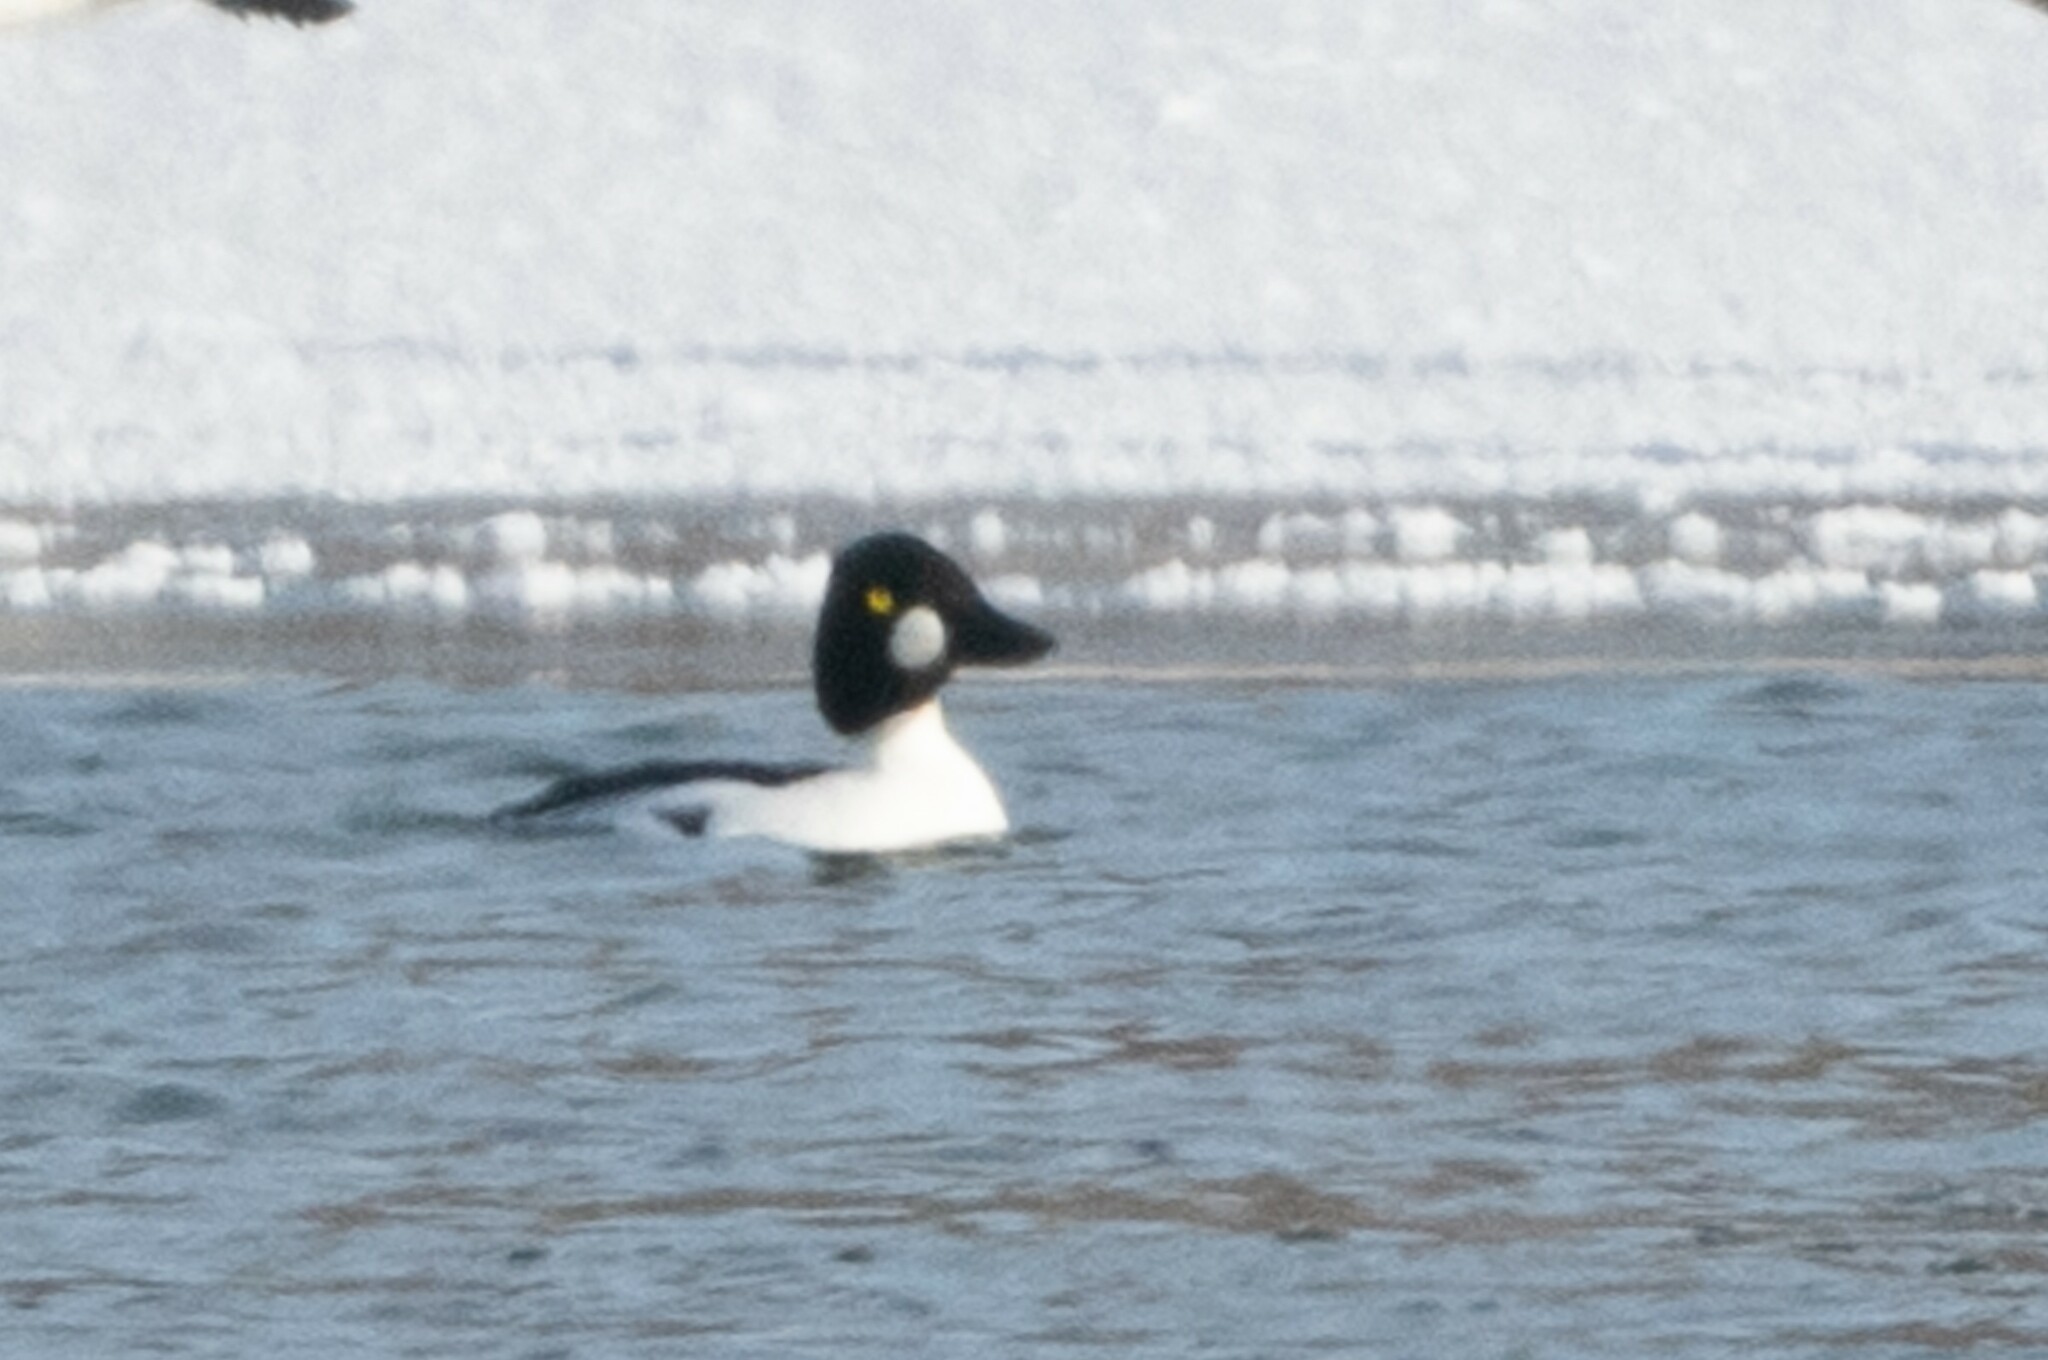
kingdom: Animalia
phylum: Chordata
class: Aves
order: Anseriformes
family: Anatidae
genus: Bucephala
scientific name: Bucephala clangula
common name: Common goldeneye
